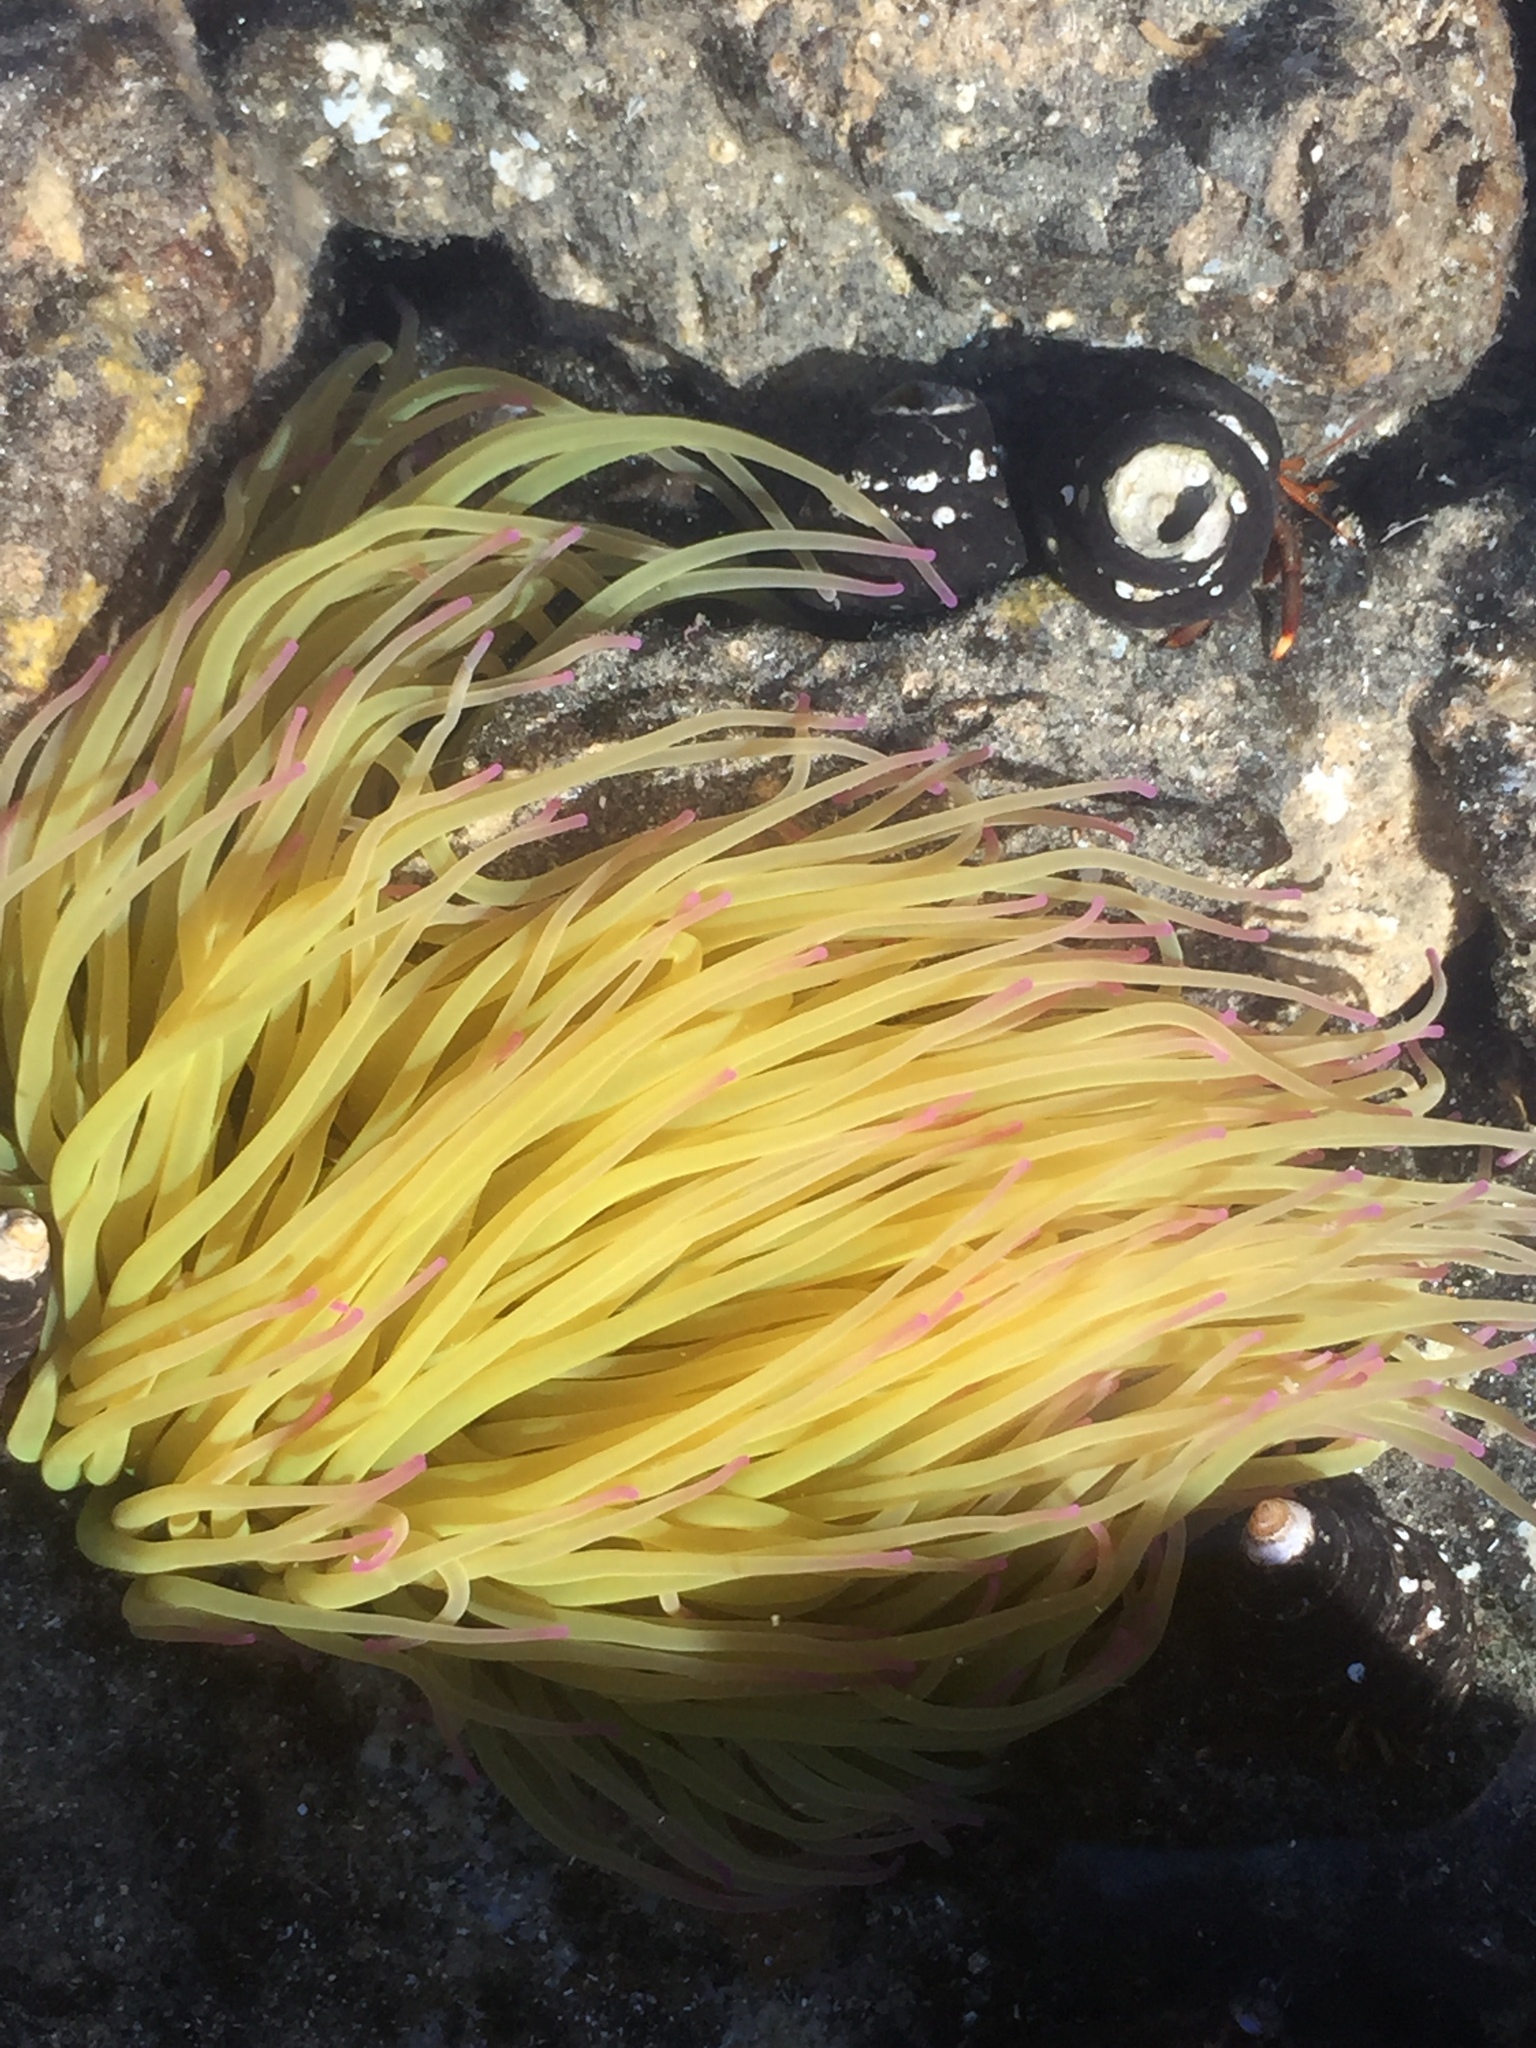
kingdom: Animalia
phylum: Cnidaria
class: Anthozoa
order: Actiniaria
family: Actiniidae
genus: Anemonia
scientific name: Anemonia viridis
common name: Snakelocks anemone
